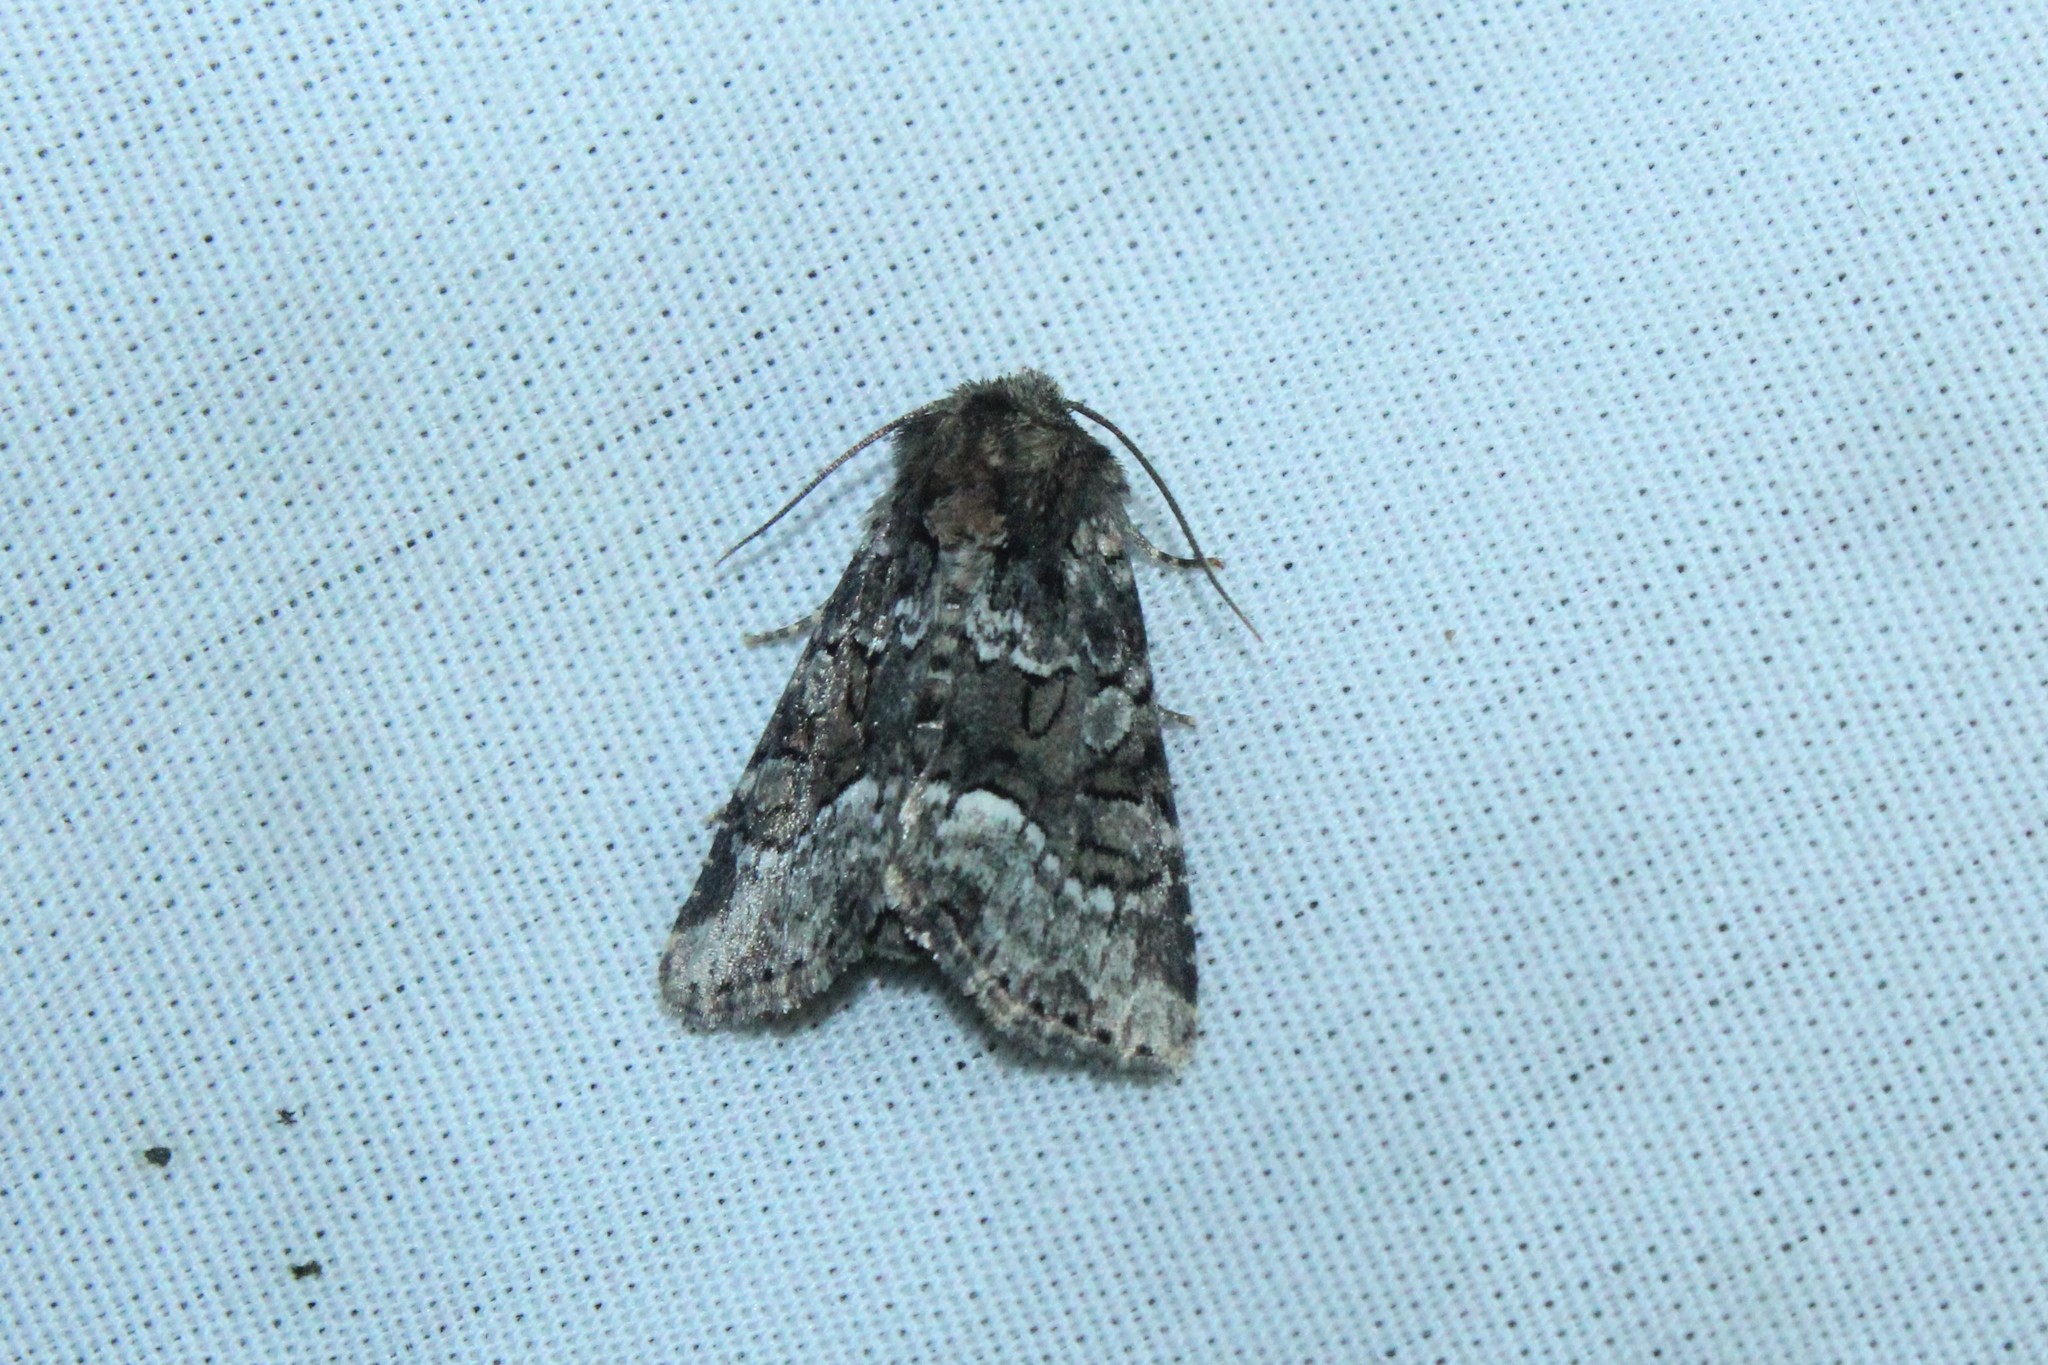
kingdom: Animalia
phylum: Arthropoda
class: Insecta
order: Lepidoptera
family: Noctuidae
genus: Oligia
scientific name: Oligia strigilis
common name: Marbled minor
